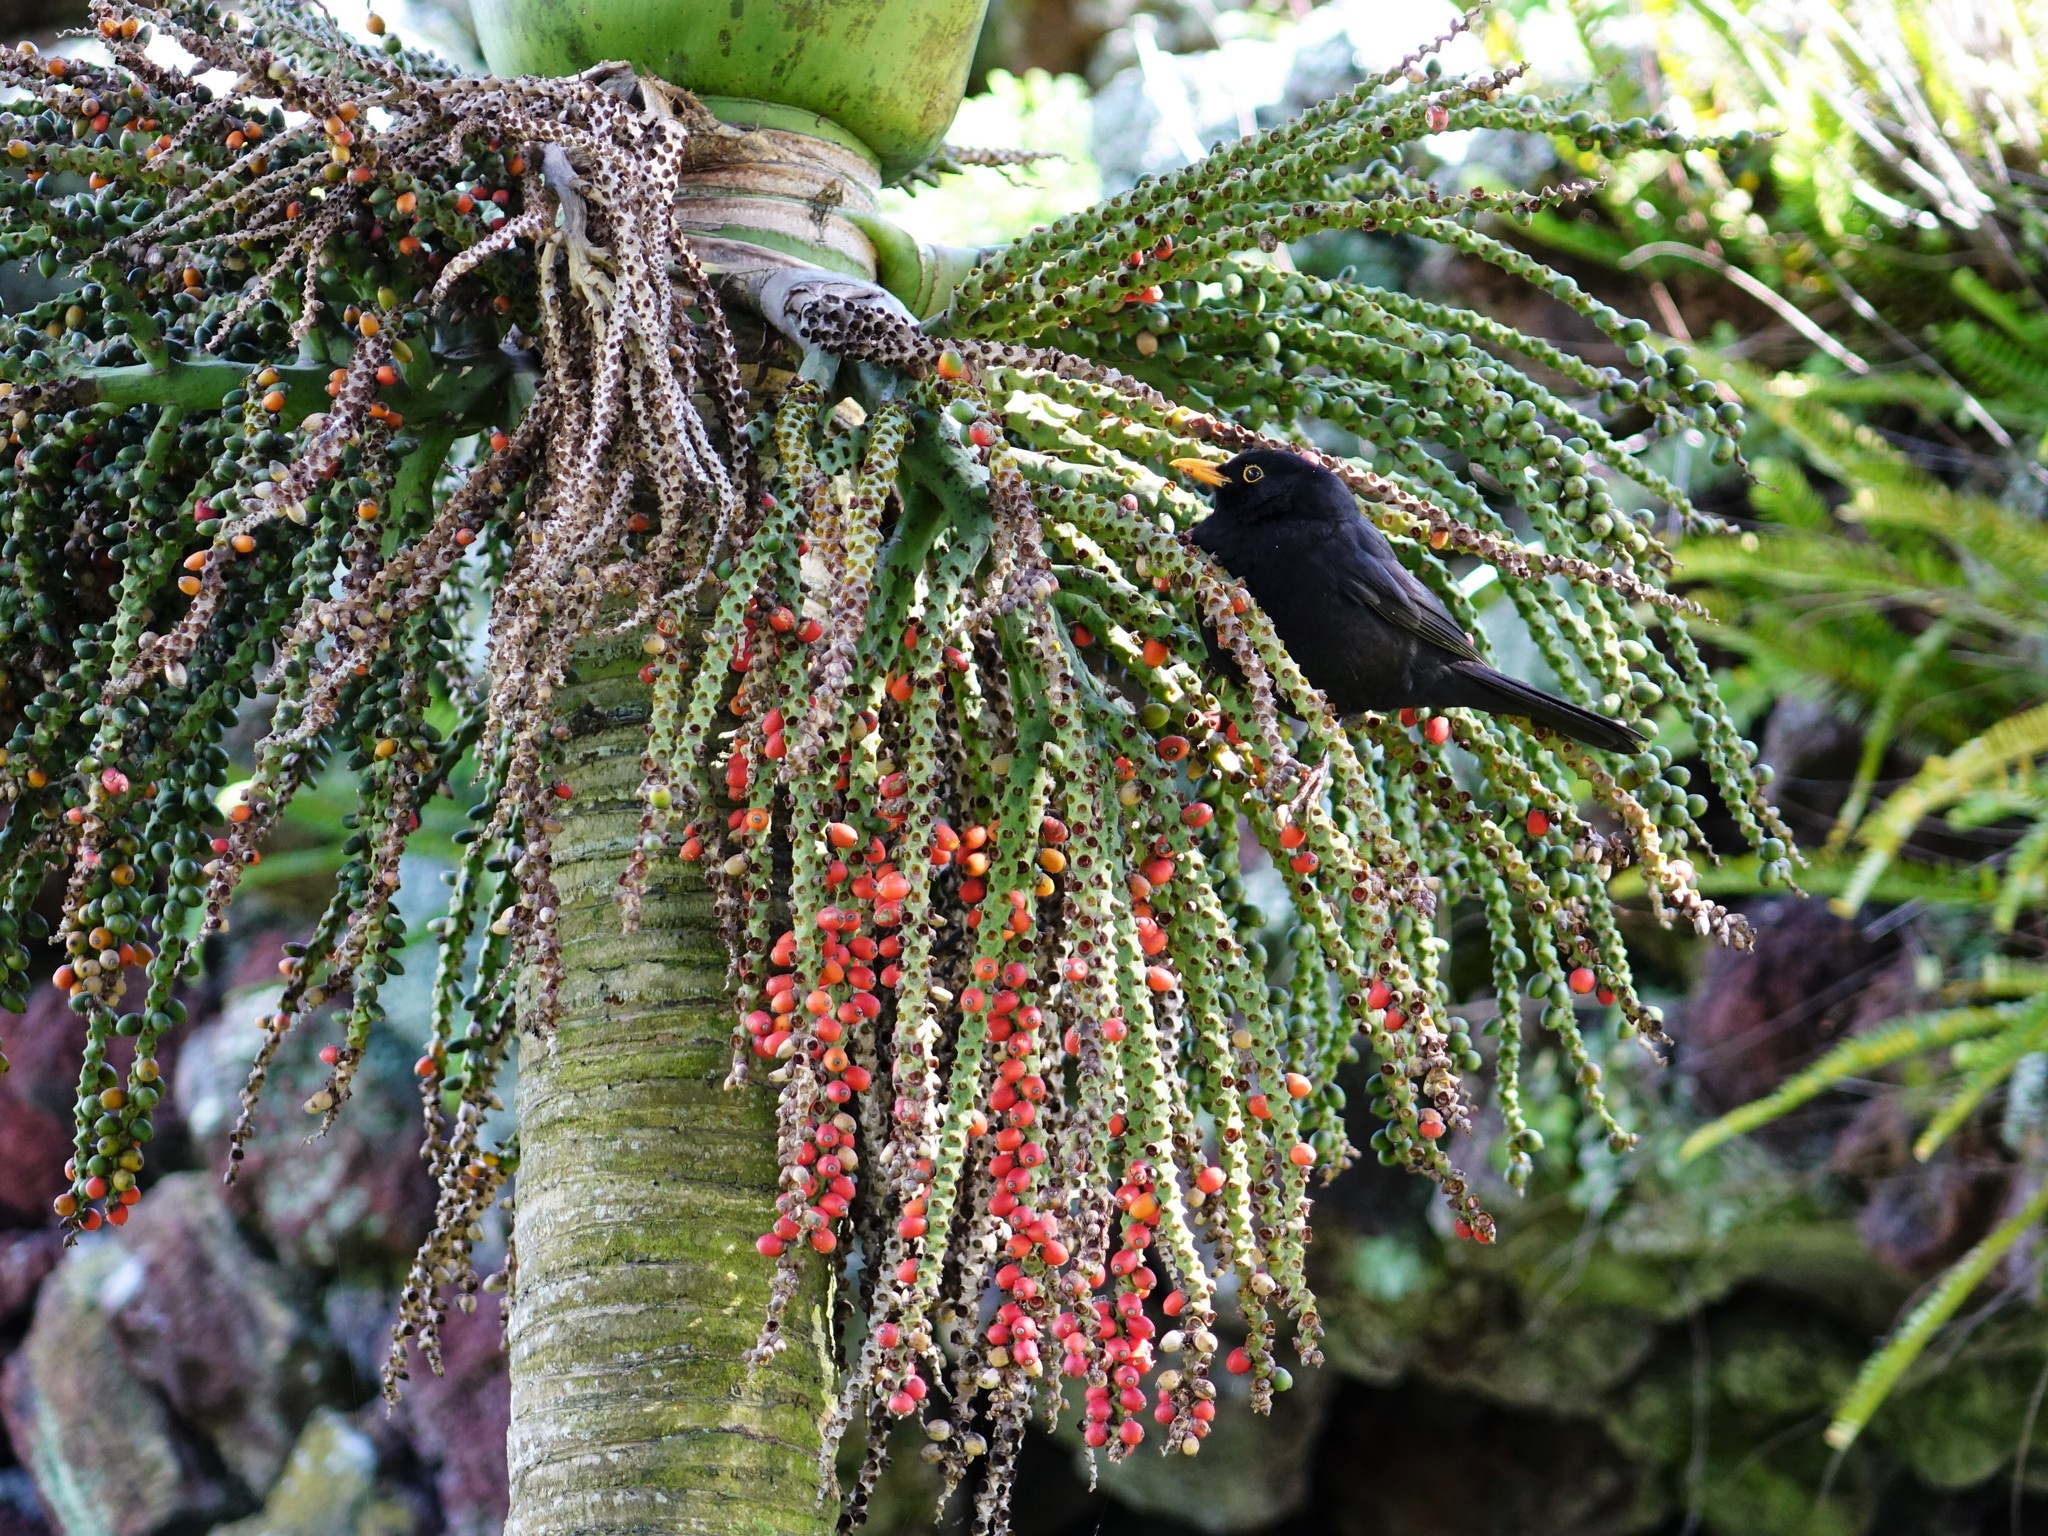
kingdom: Animalia
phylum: Chordata
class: Aves
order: Passeriformes
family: Turdidae
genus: Turdus
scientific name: Turdus merula
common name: Common blackbird
